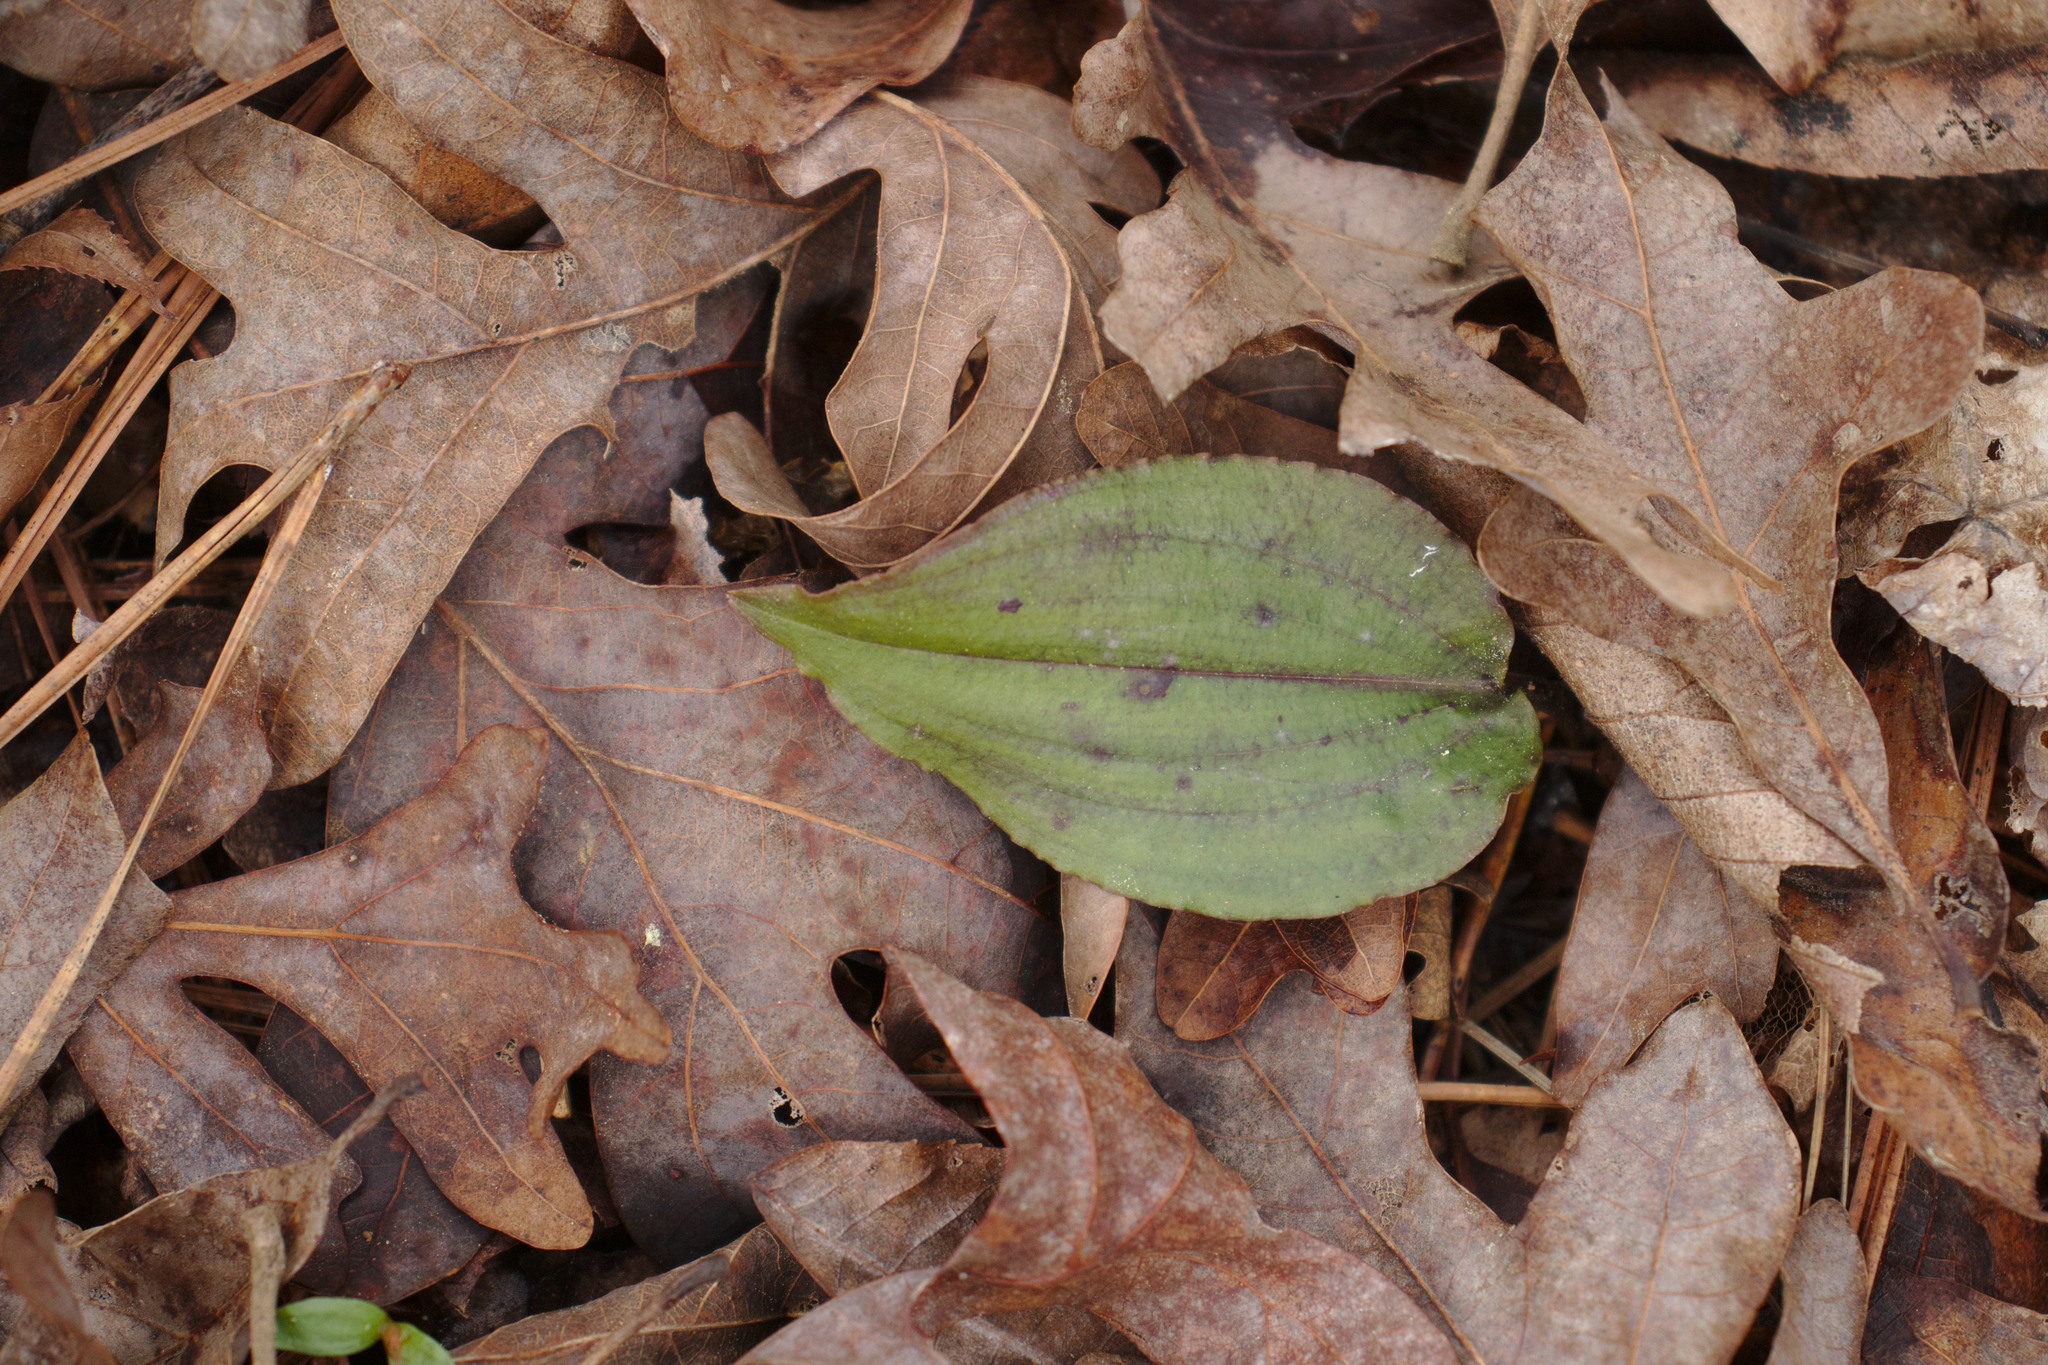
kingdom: Plantae
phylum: Tracheophyta
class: Liliopsida
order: Asparagales
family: Orchidaceae
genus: Tipularia
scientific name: Tipularia discolor
